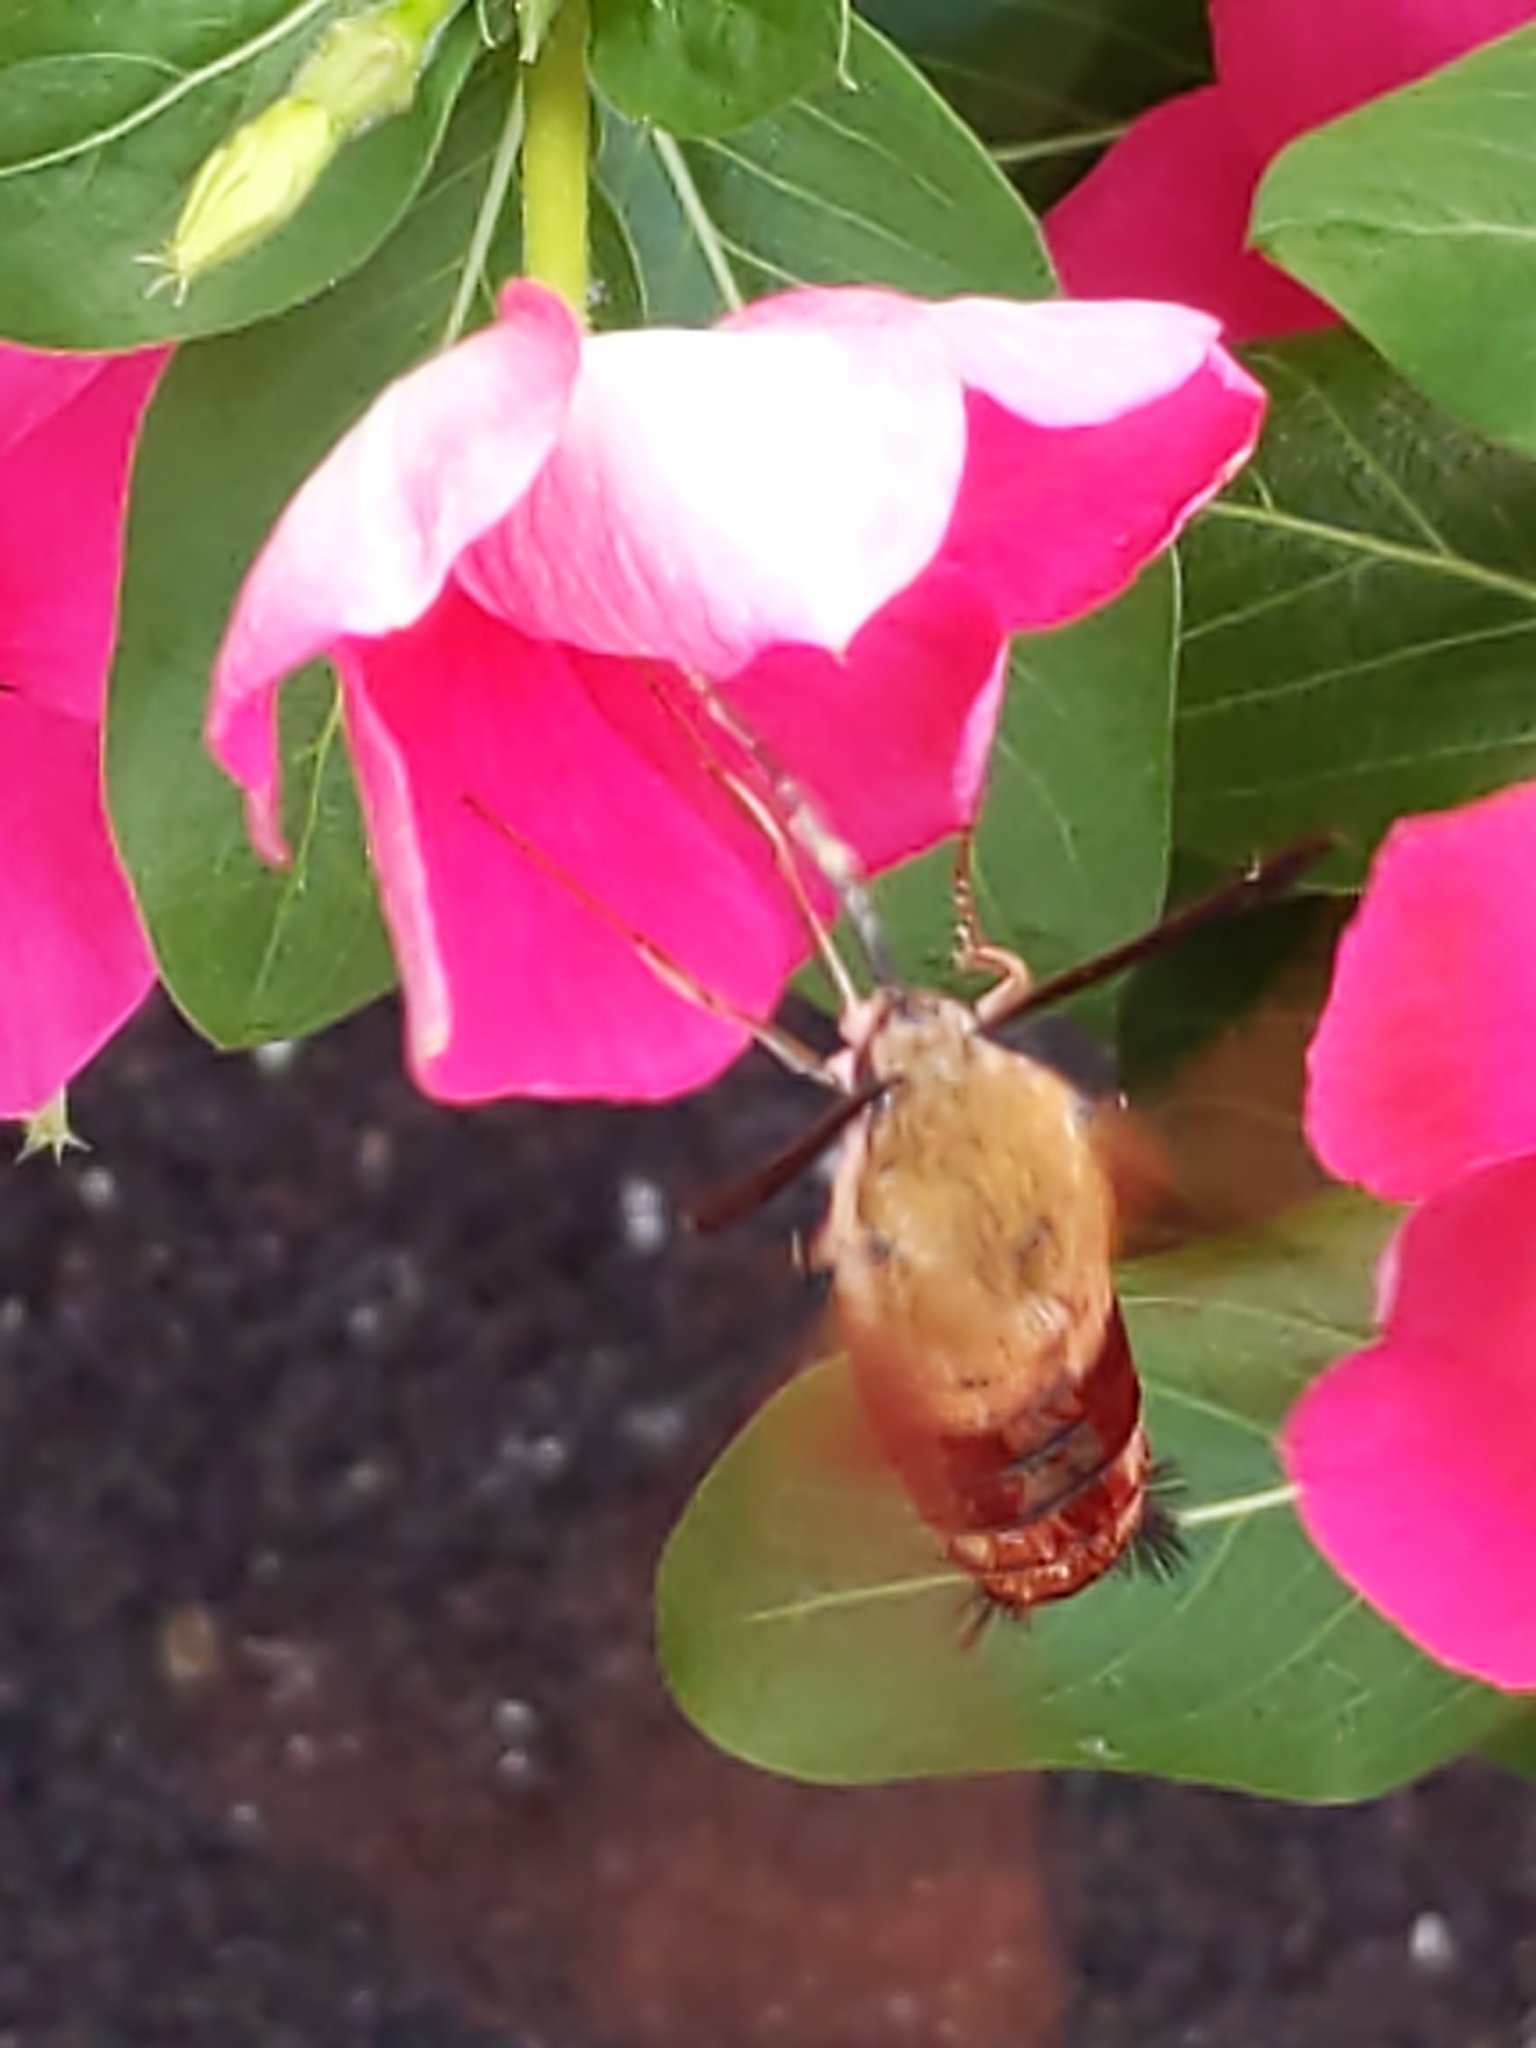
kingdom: Animalia
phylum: Arthropoda
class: Insecta
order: Lepidoptera
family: Sphingidae
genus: Hemaris
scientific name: Hemaris thysbe
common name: Common clear-wing
